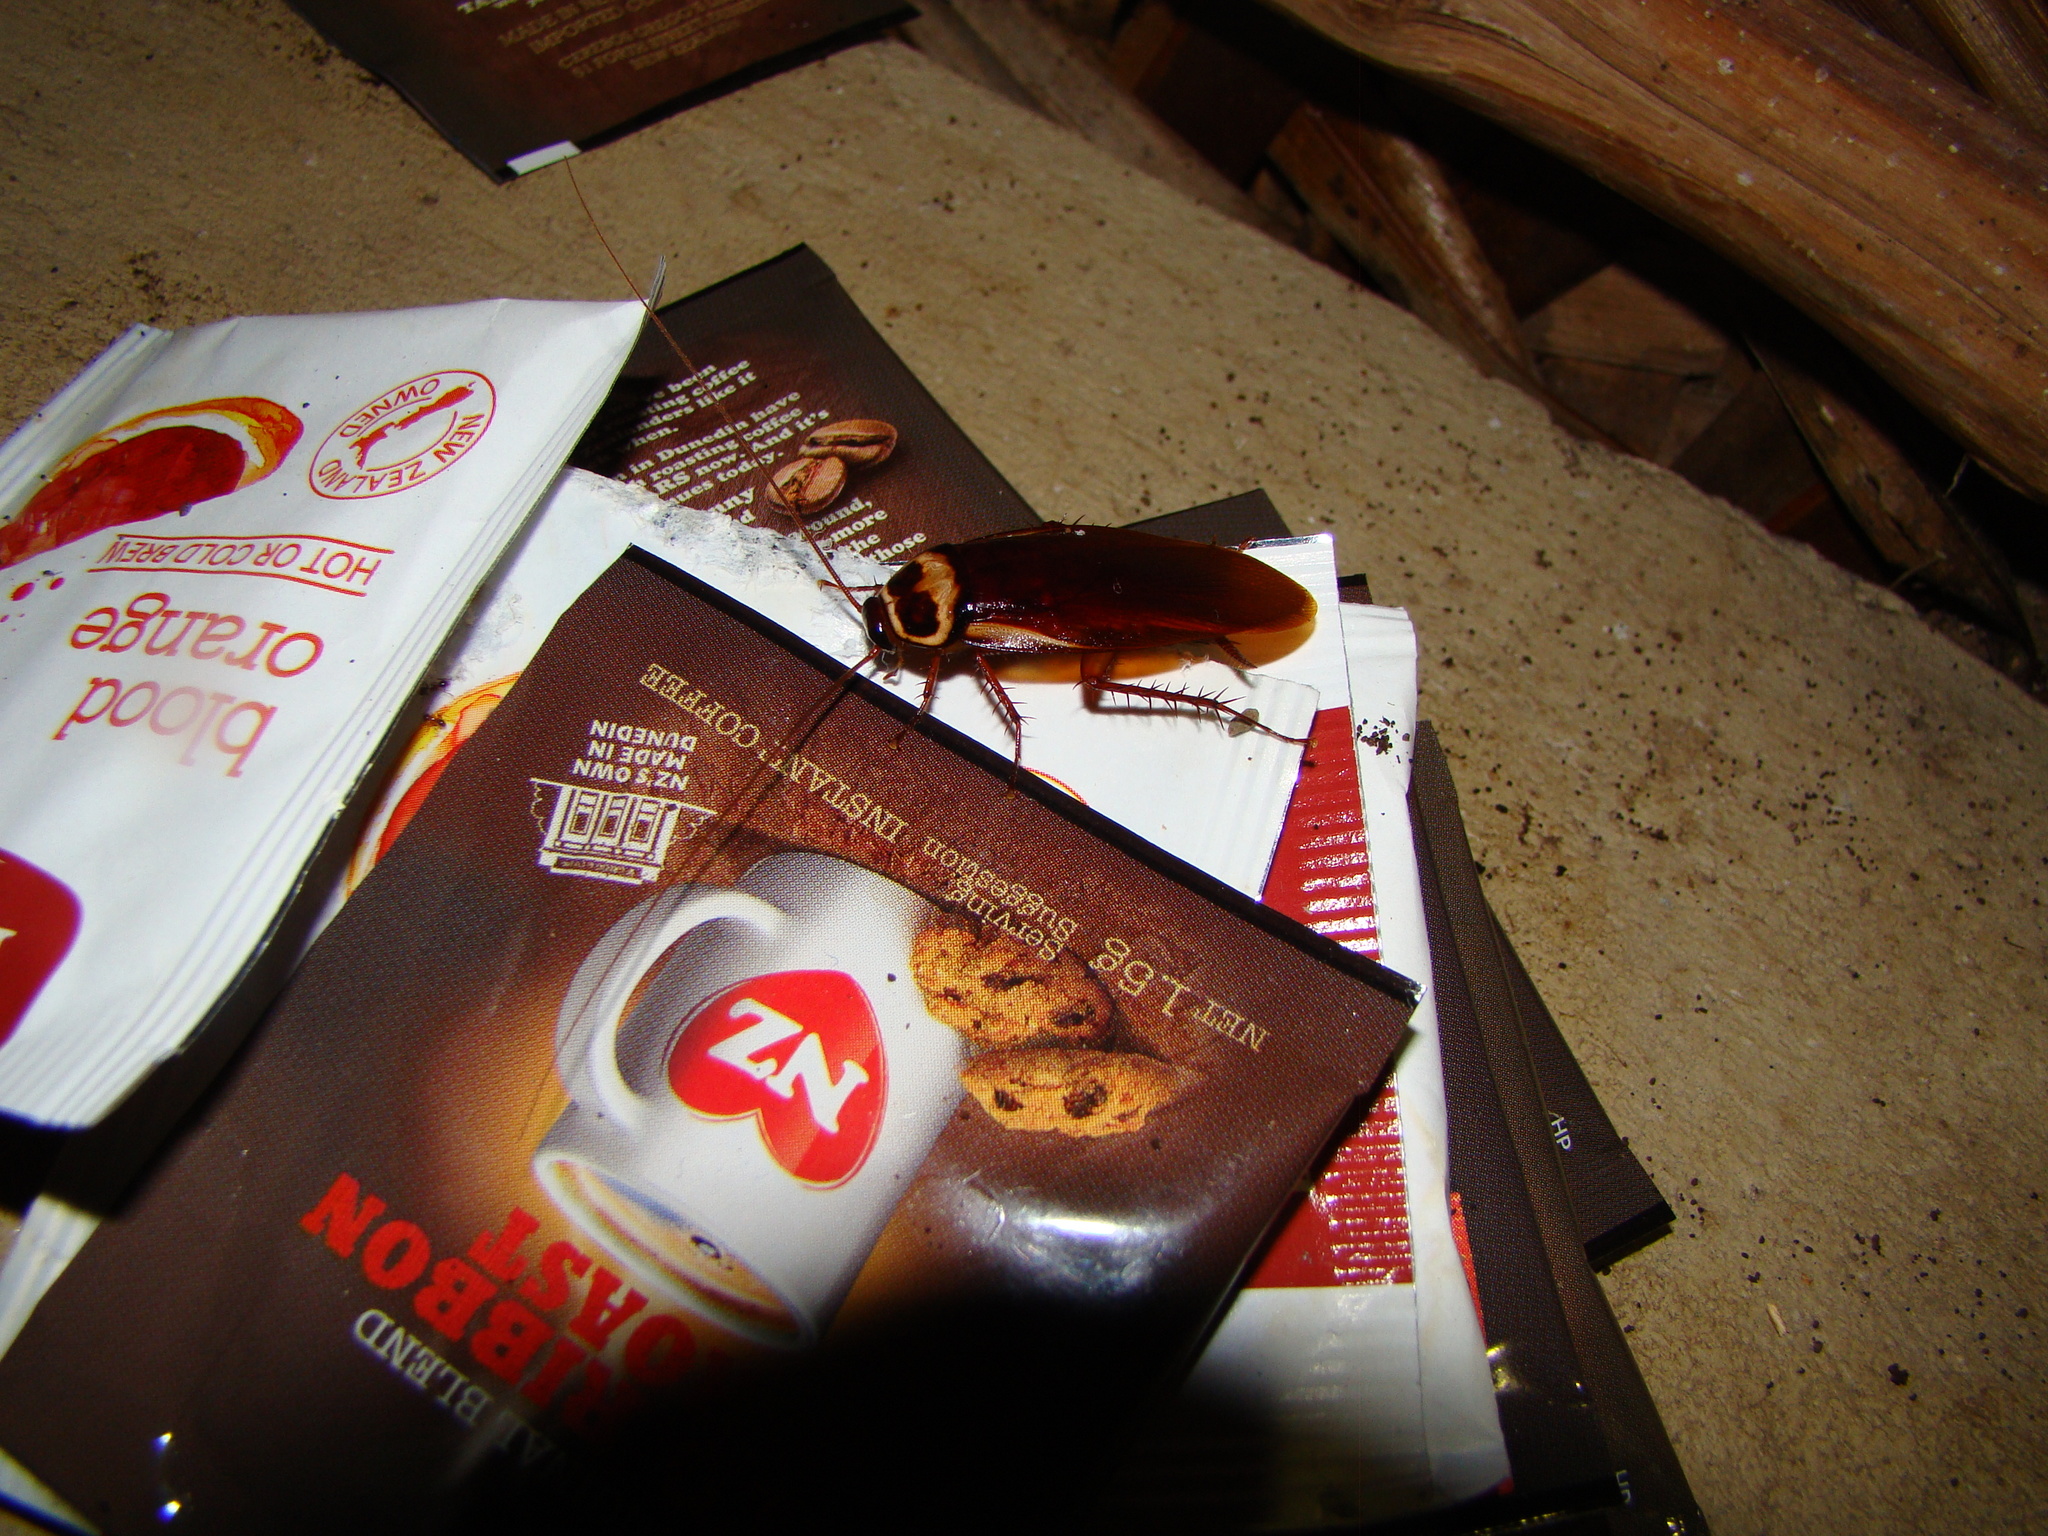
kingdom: Animalia
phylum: Arthropoda
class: Insecta
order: Blattodea
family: Blattidae
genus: Periplaneta
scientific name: Periplaneta australasiae
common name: Australian cockroach
